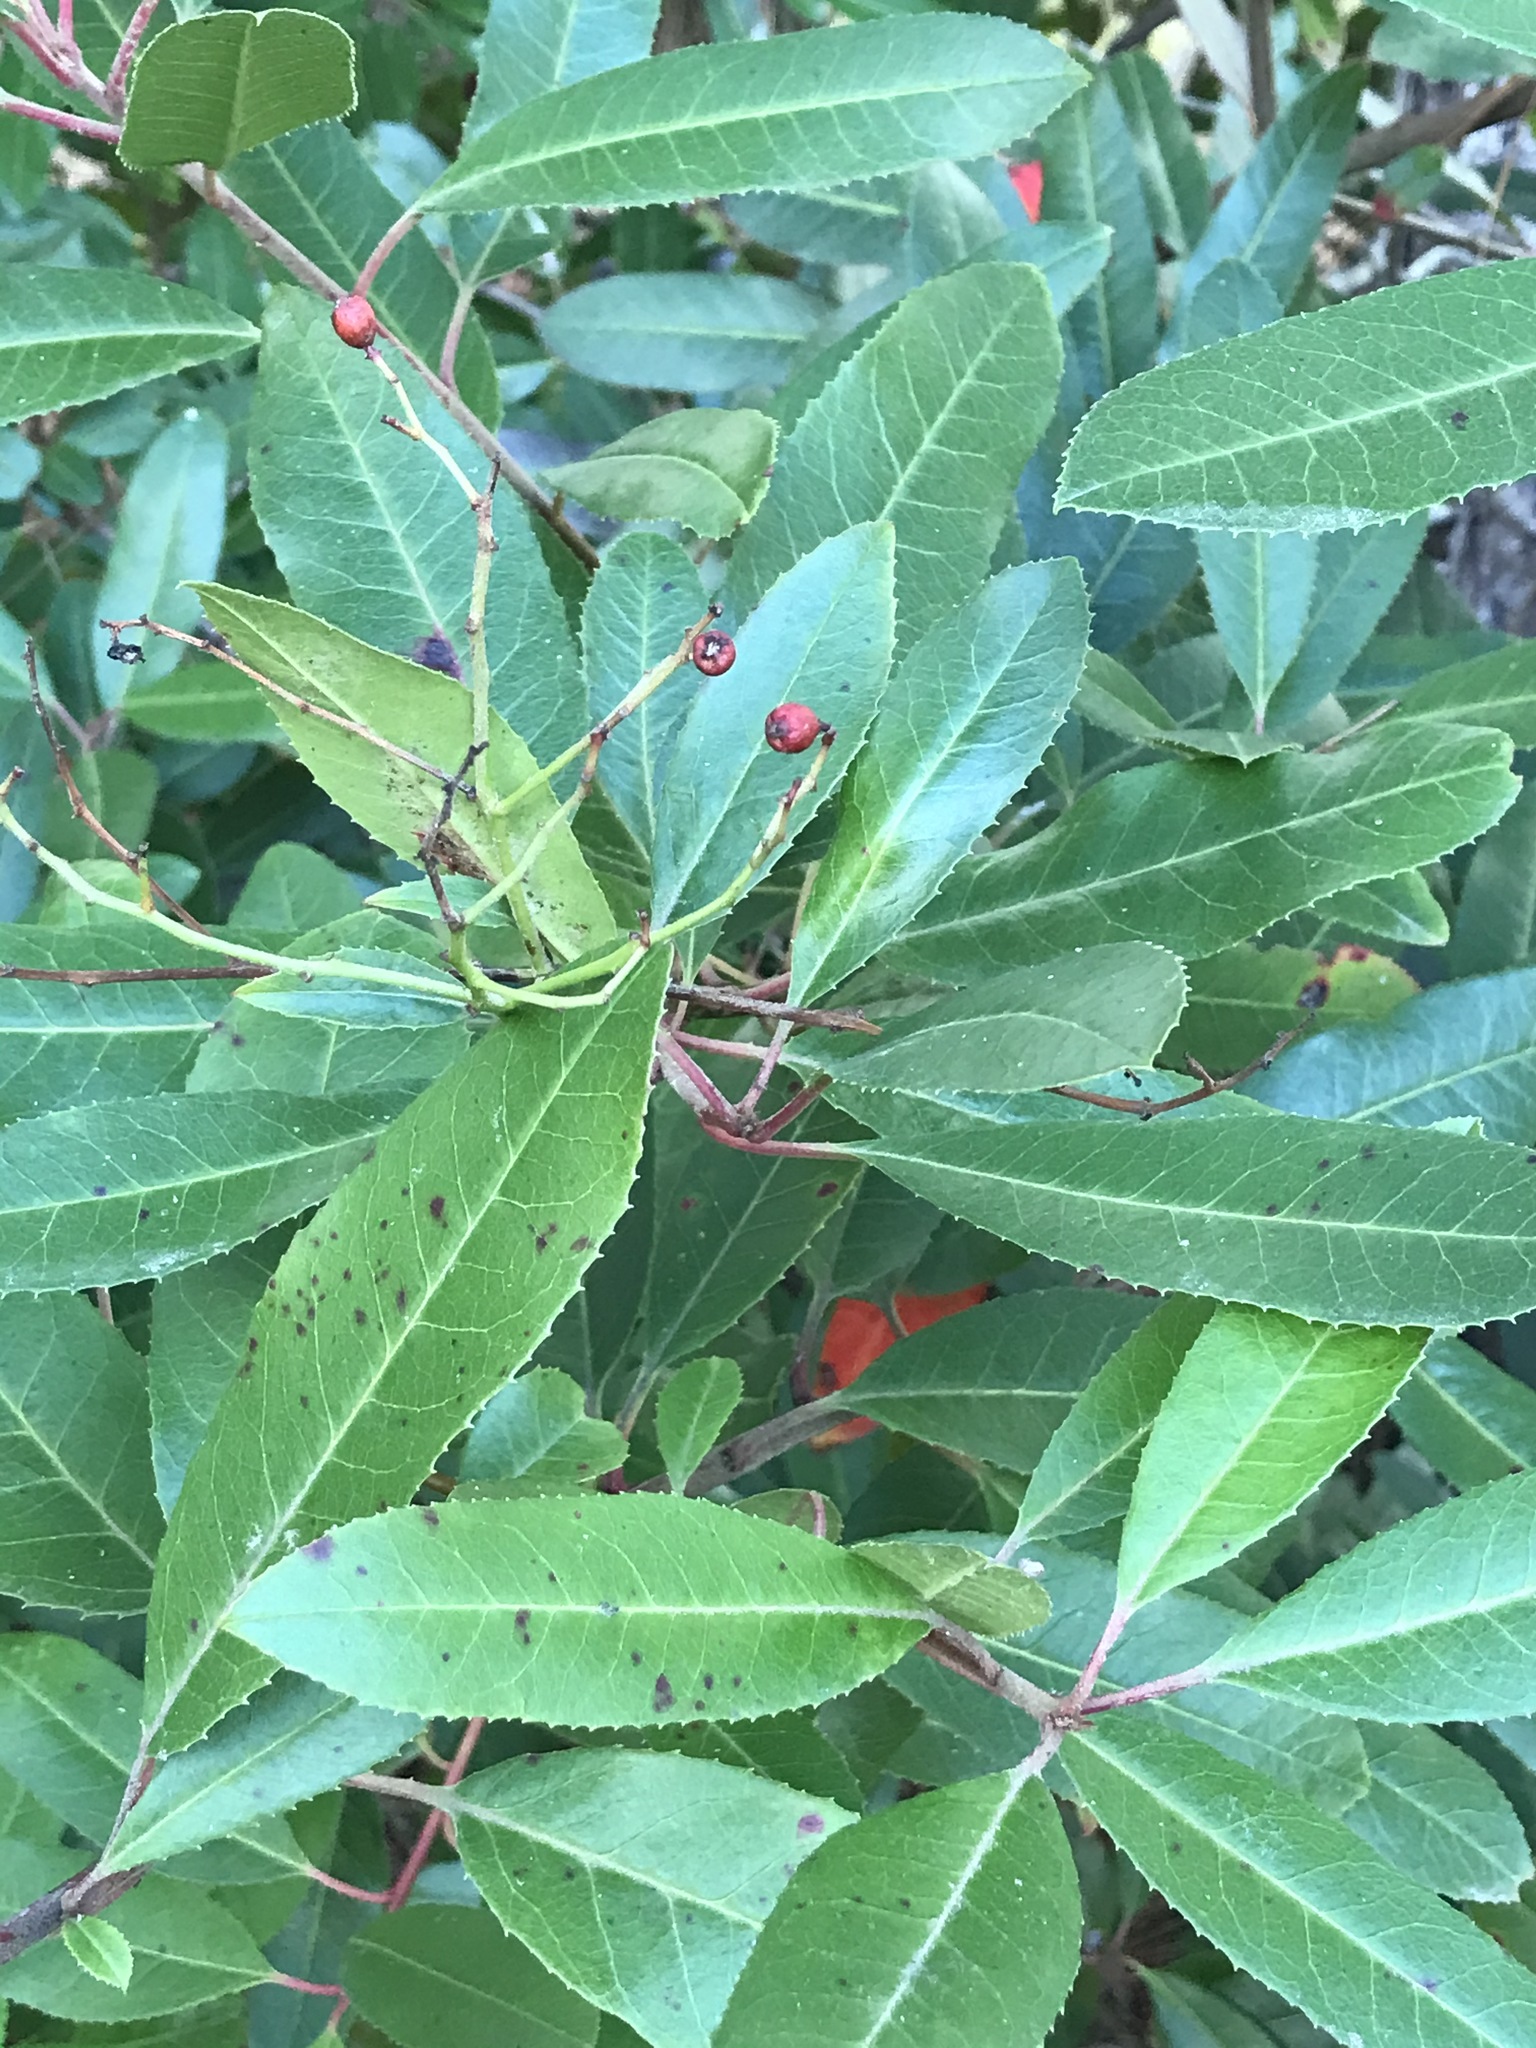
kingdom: Plantae
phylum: Tracheophyta
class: Magnoliopsida
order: Rosales
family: Rosaceae
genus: Heteromeles
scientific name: Heteromeles arbutifolia
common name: California-holly
